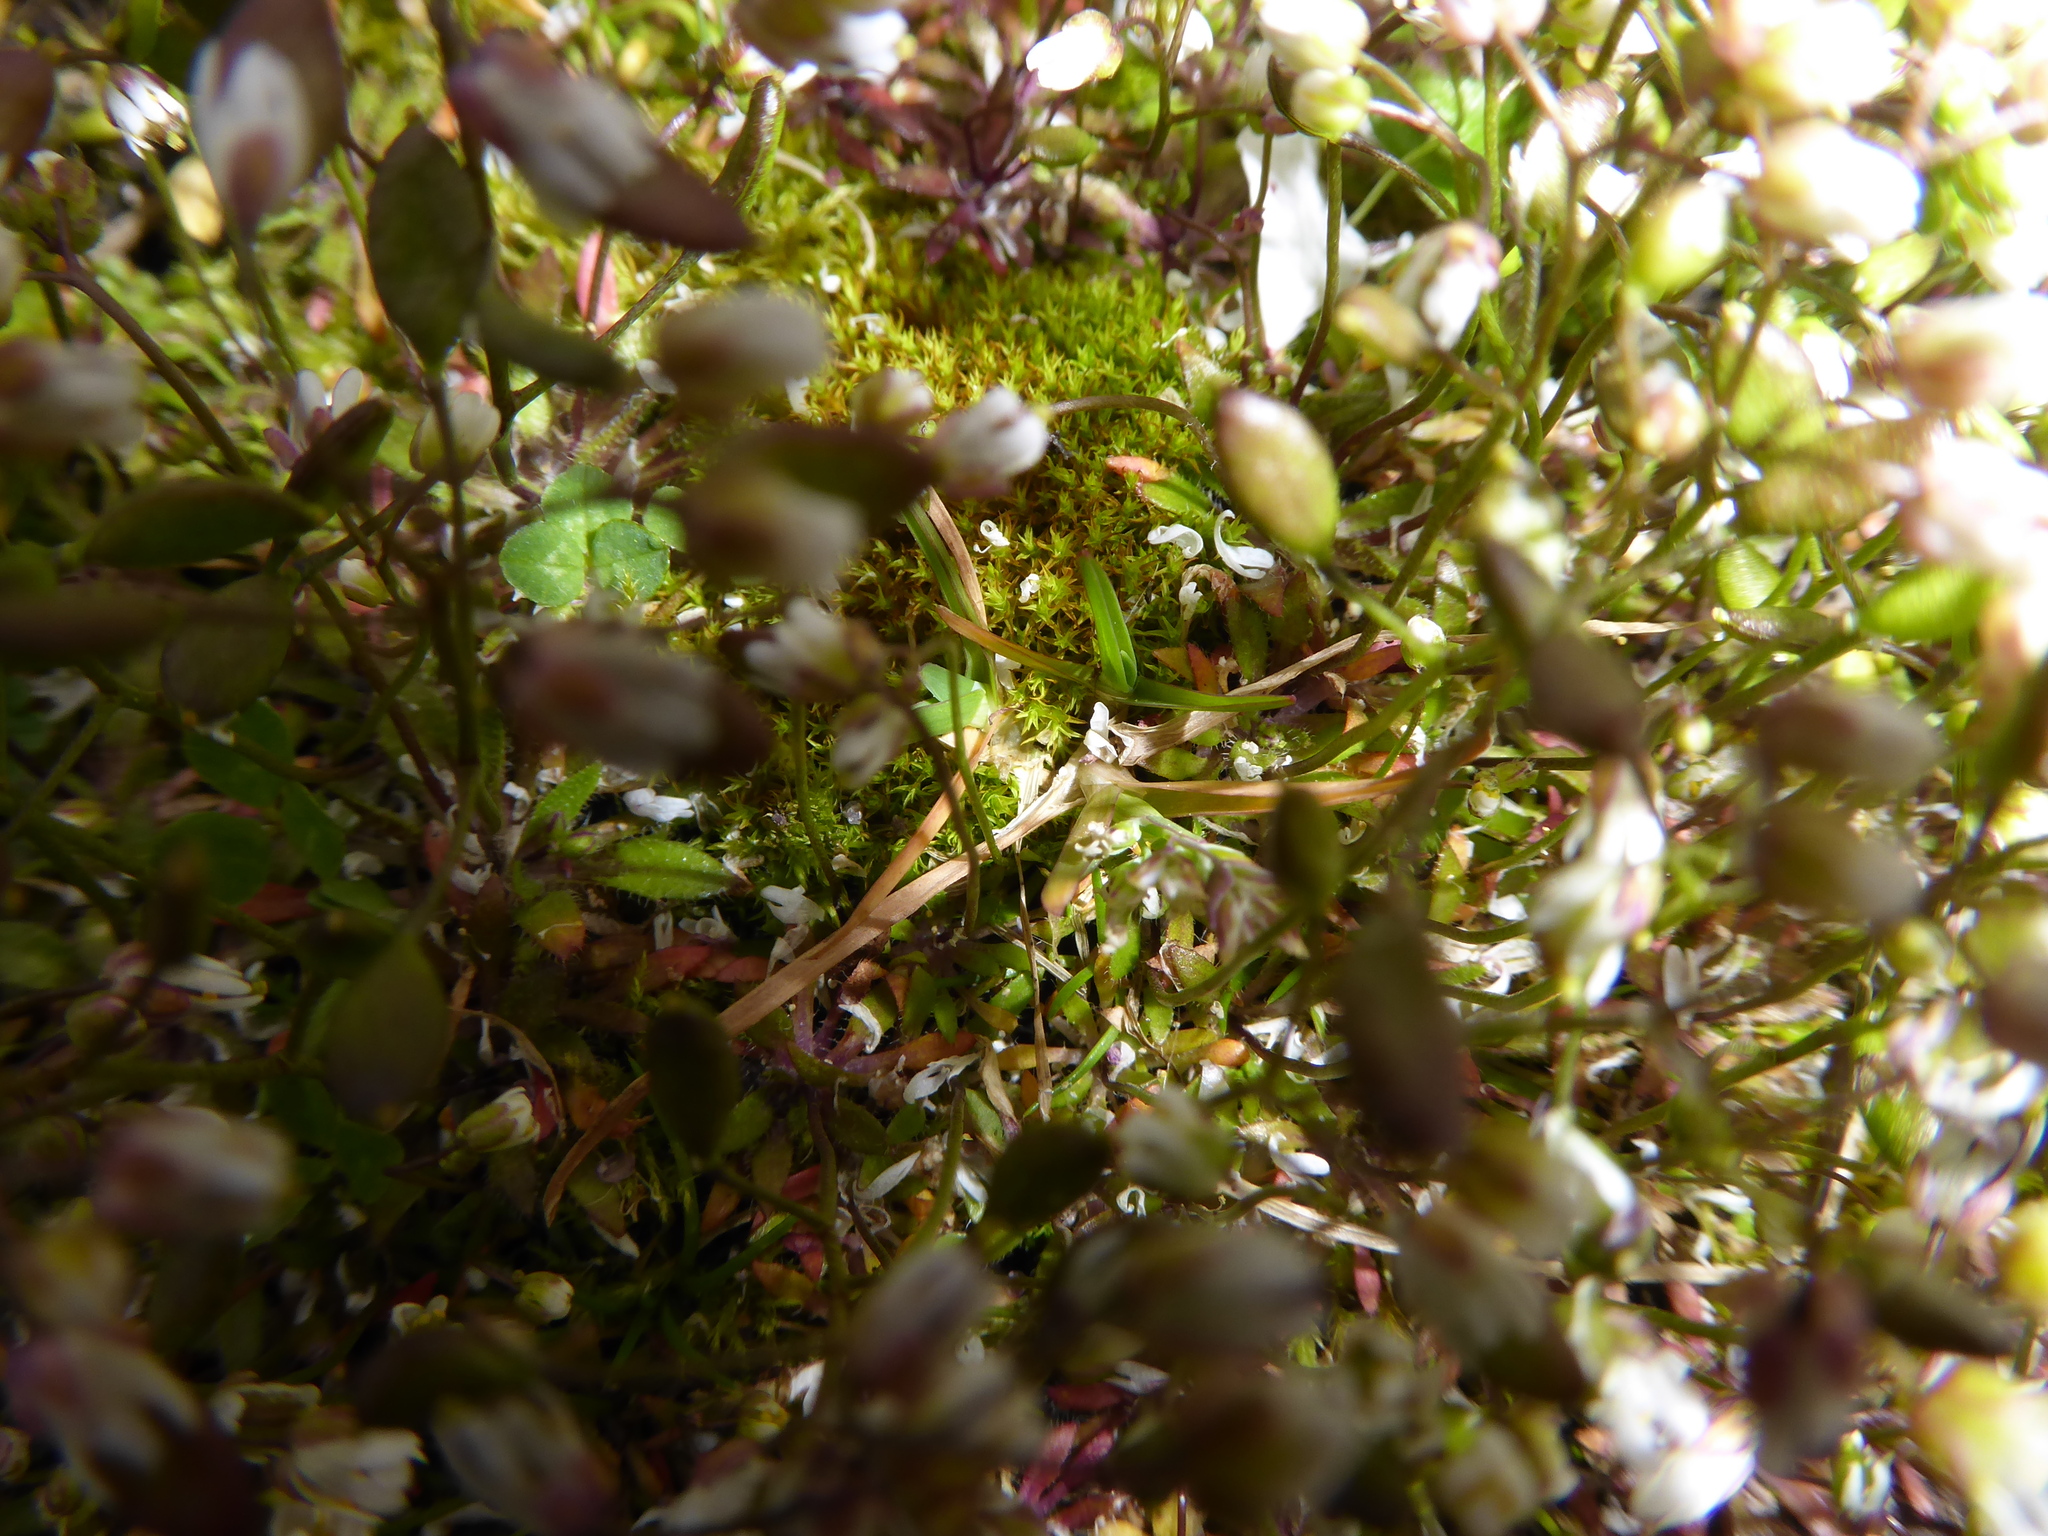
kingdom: Plantae
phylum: Tracheophyta
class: Magnoliopsida
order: Brassicales
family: Brassicaceae
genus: Draba
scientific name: Draba verna
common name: Spring draba
